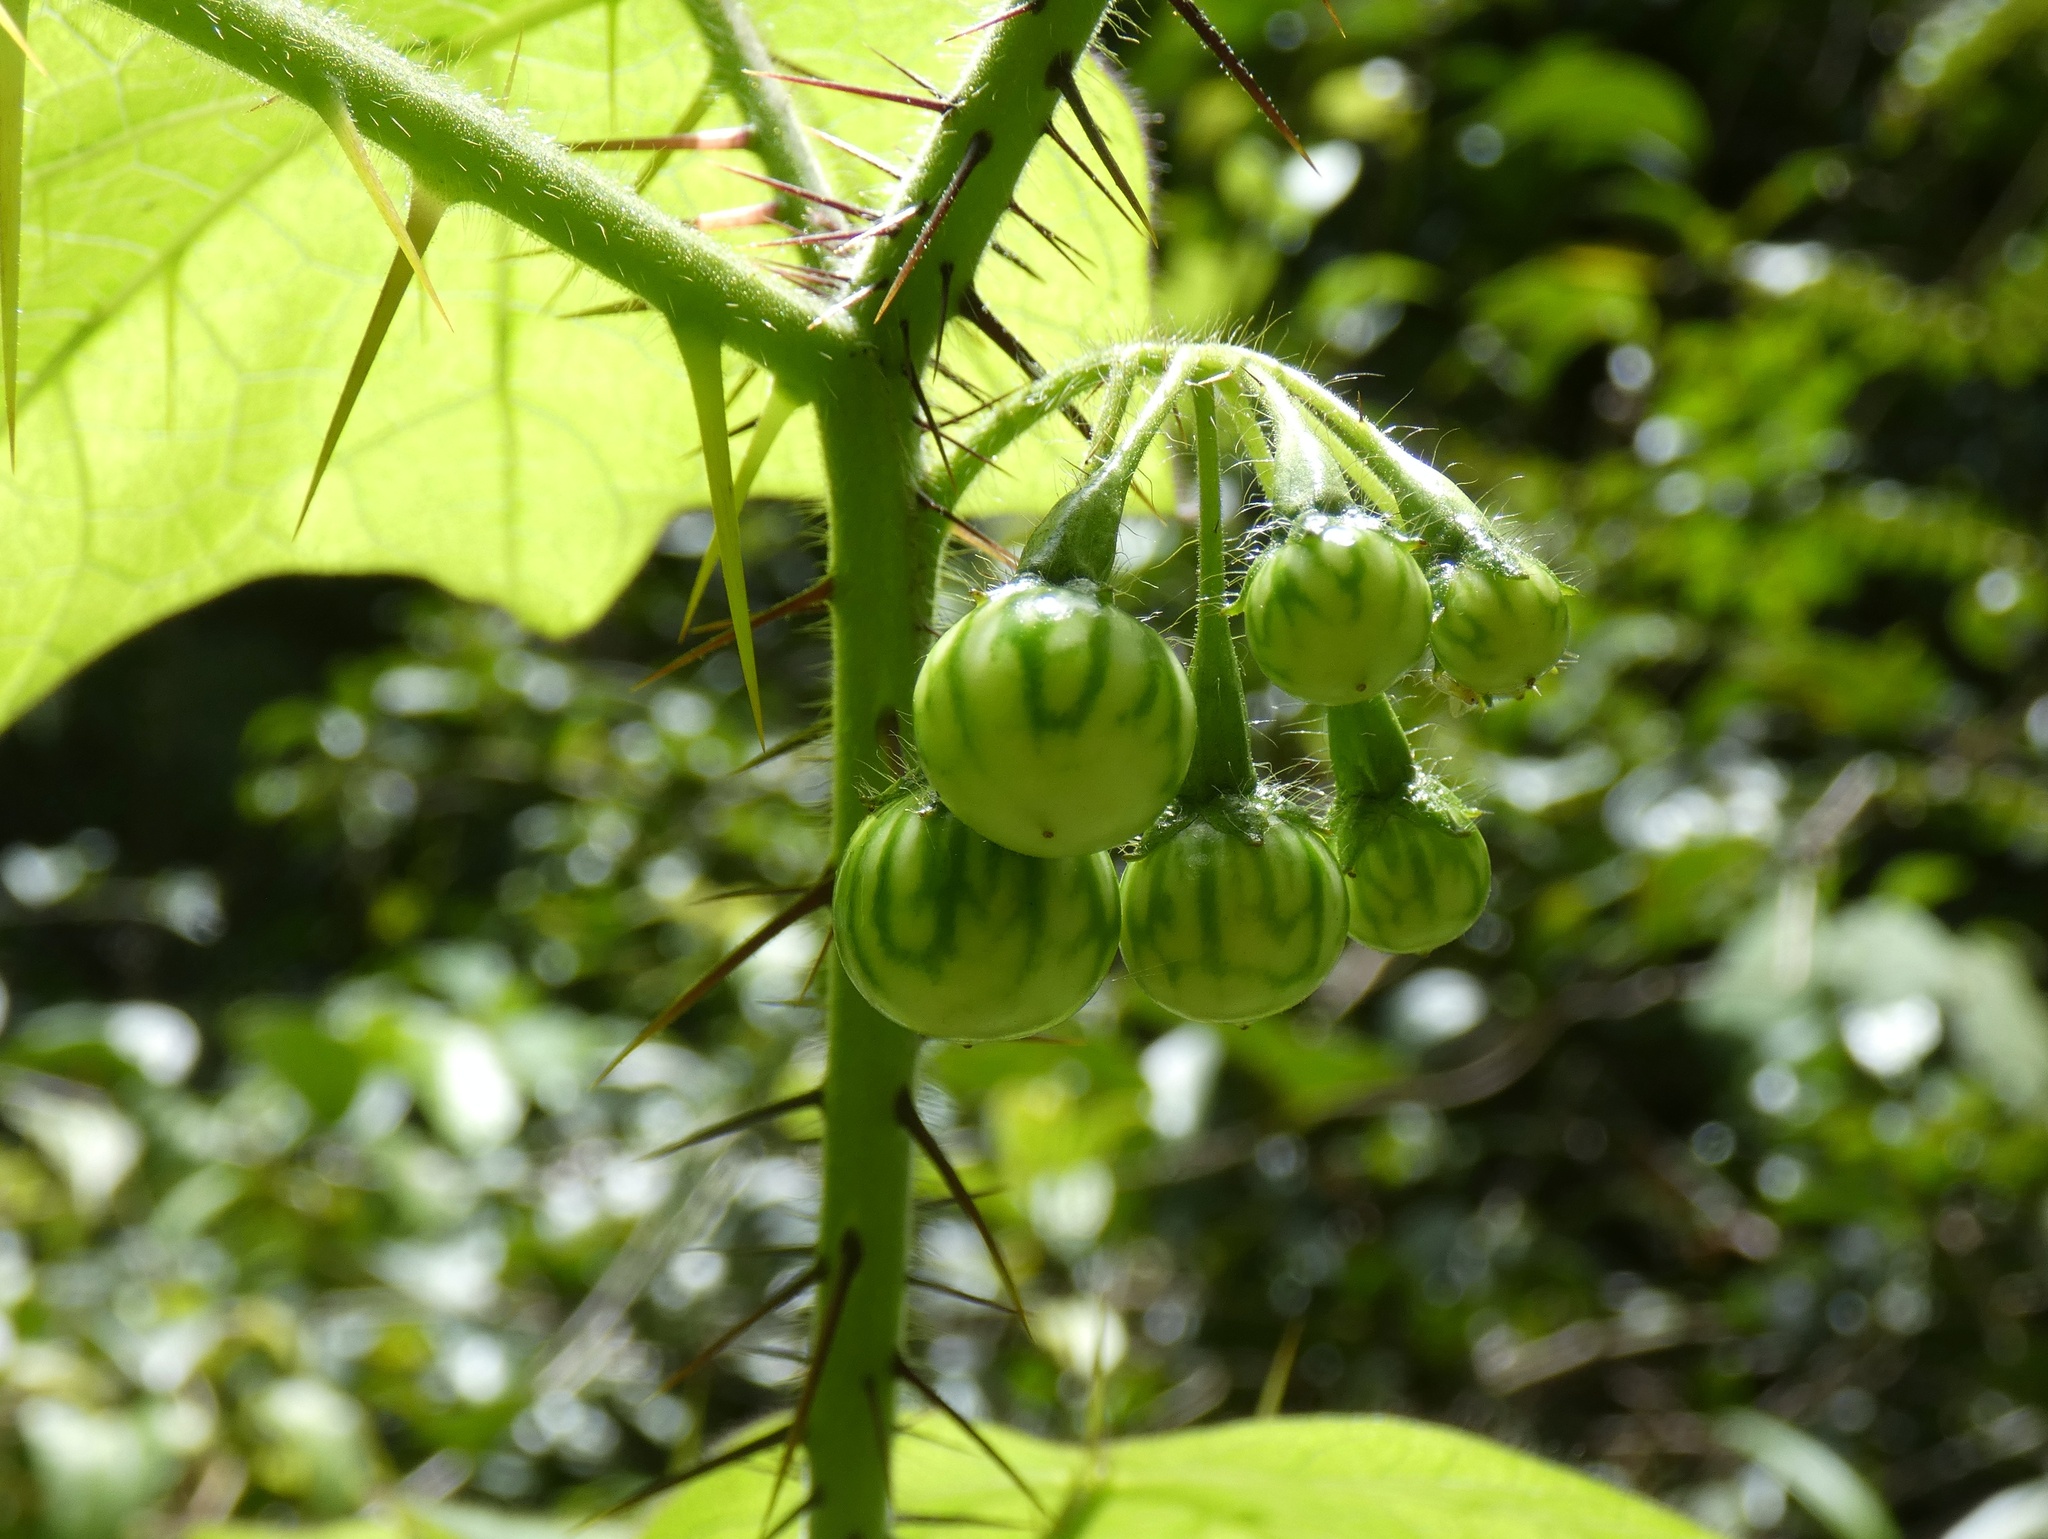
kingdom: Plantae
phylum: Tracheophyta
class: Magnoliopsida
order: Solanales
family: Solanaceae
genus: Solanum
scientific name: Solanum acerifolium
